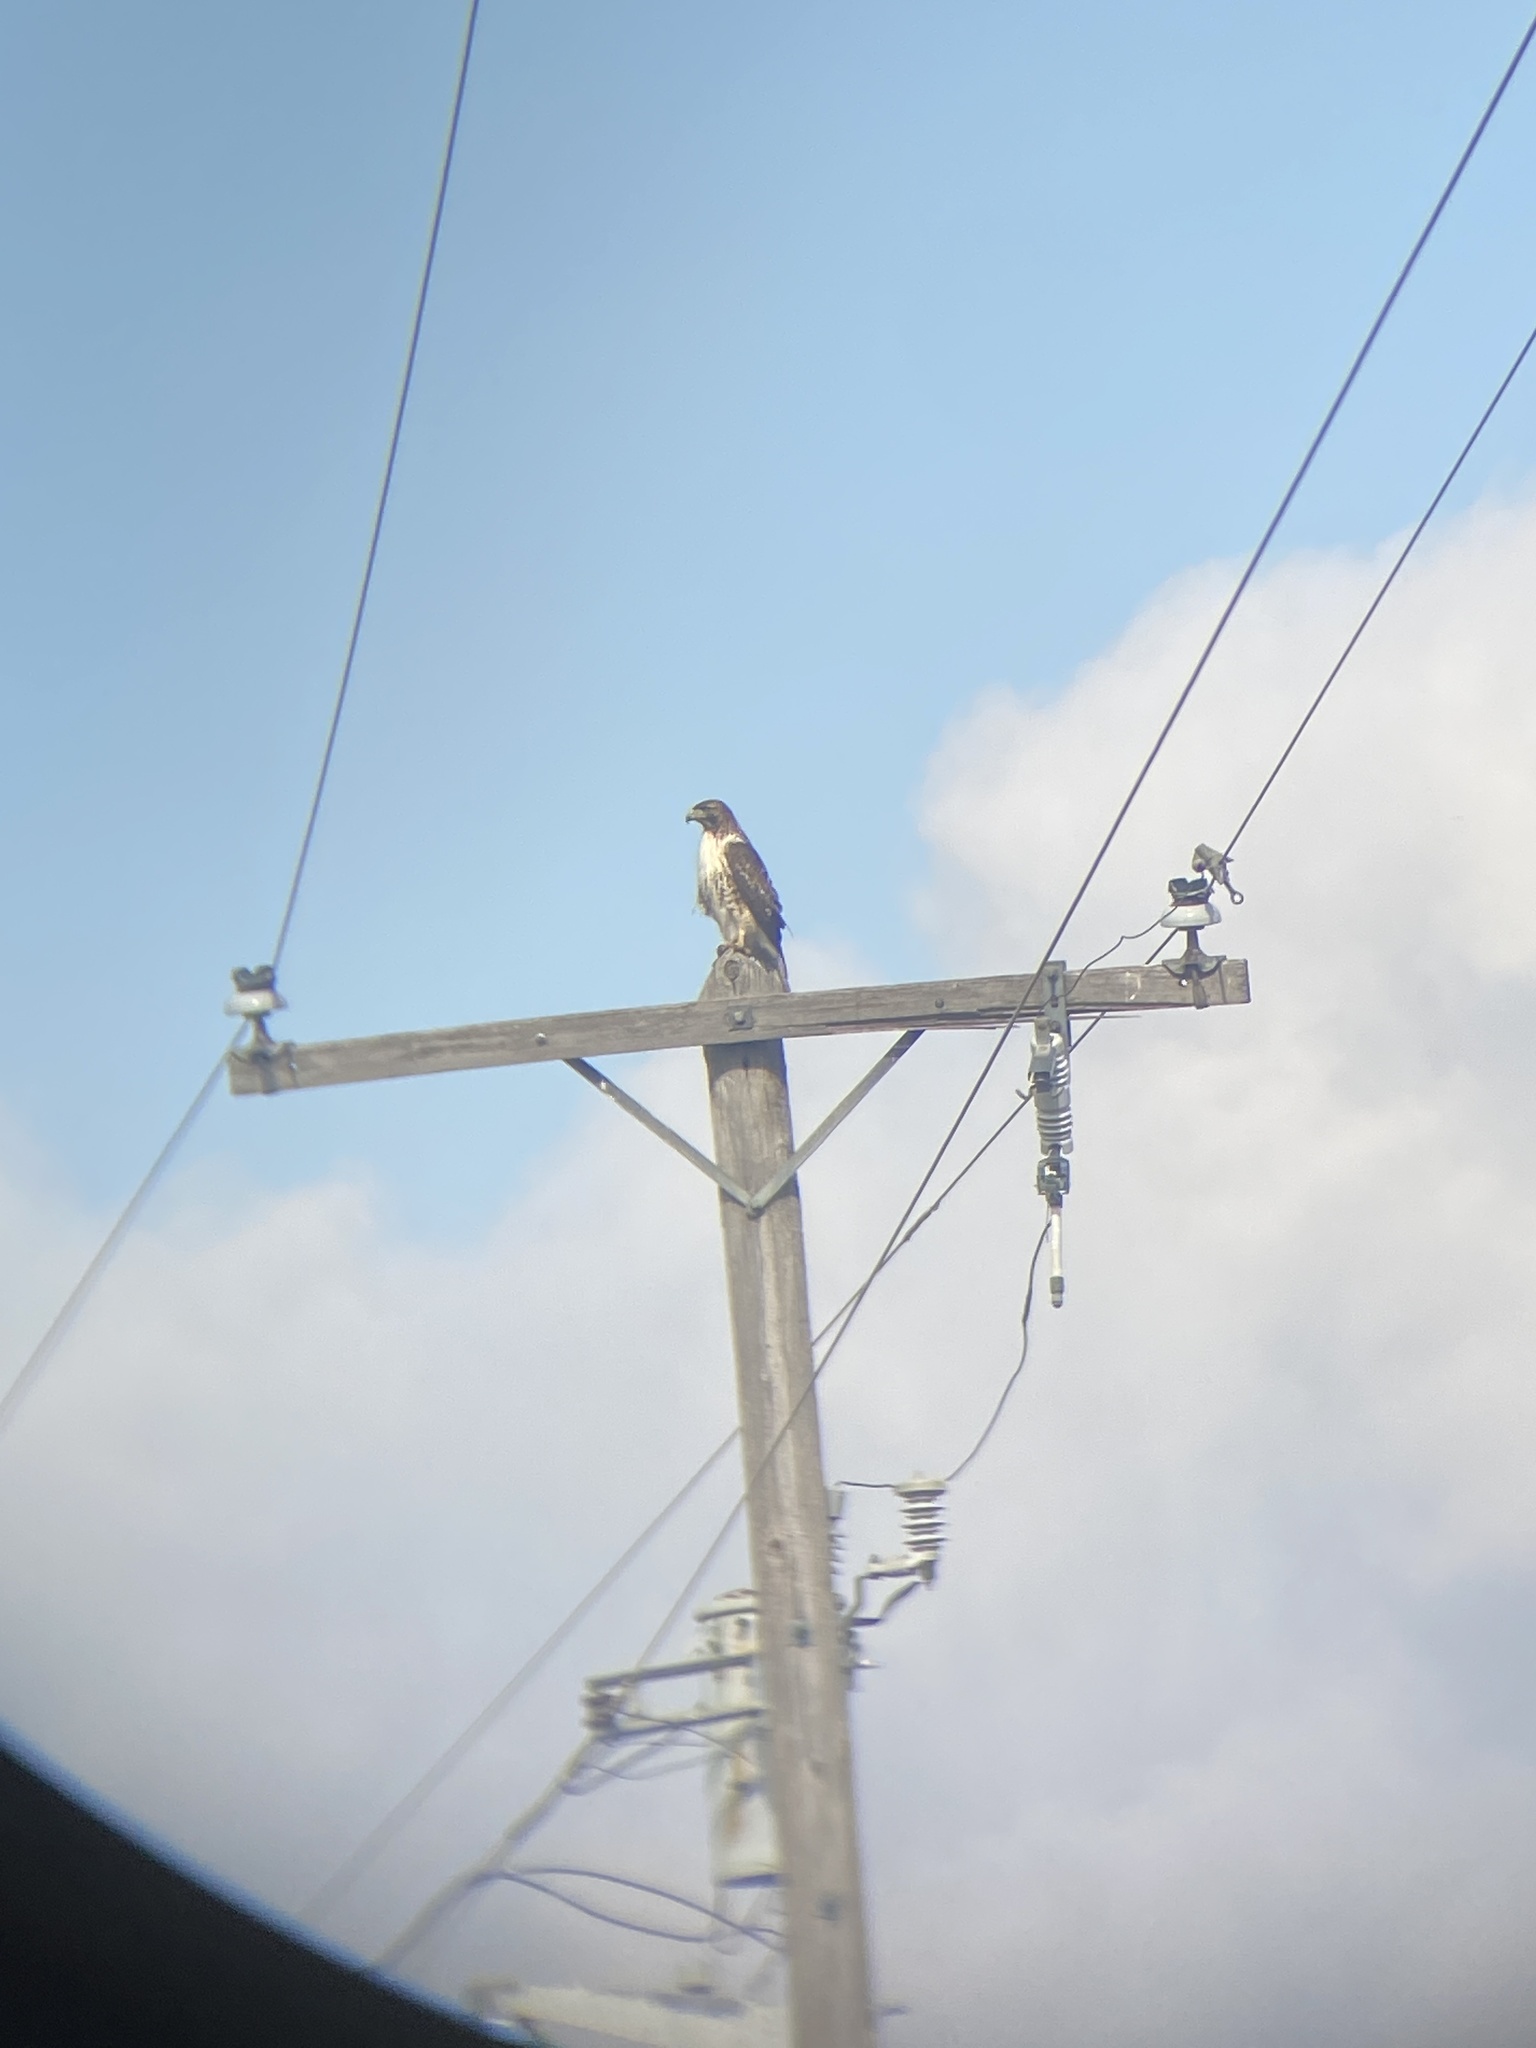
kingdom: Animalia
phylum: Chordata
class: Aves
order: Accipitriformes
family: Accipitridae
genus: Buteo
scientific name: Buteo jamaicensis
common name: Red-tailed hawk
